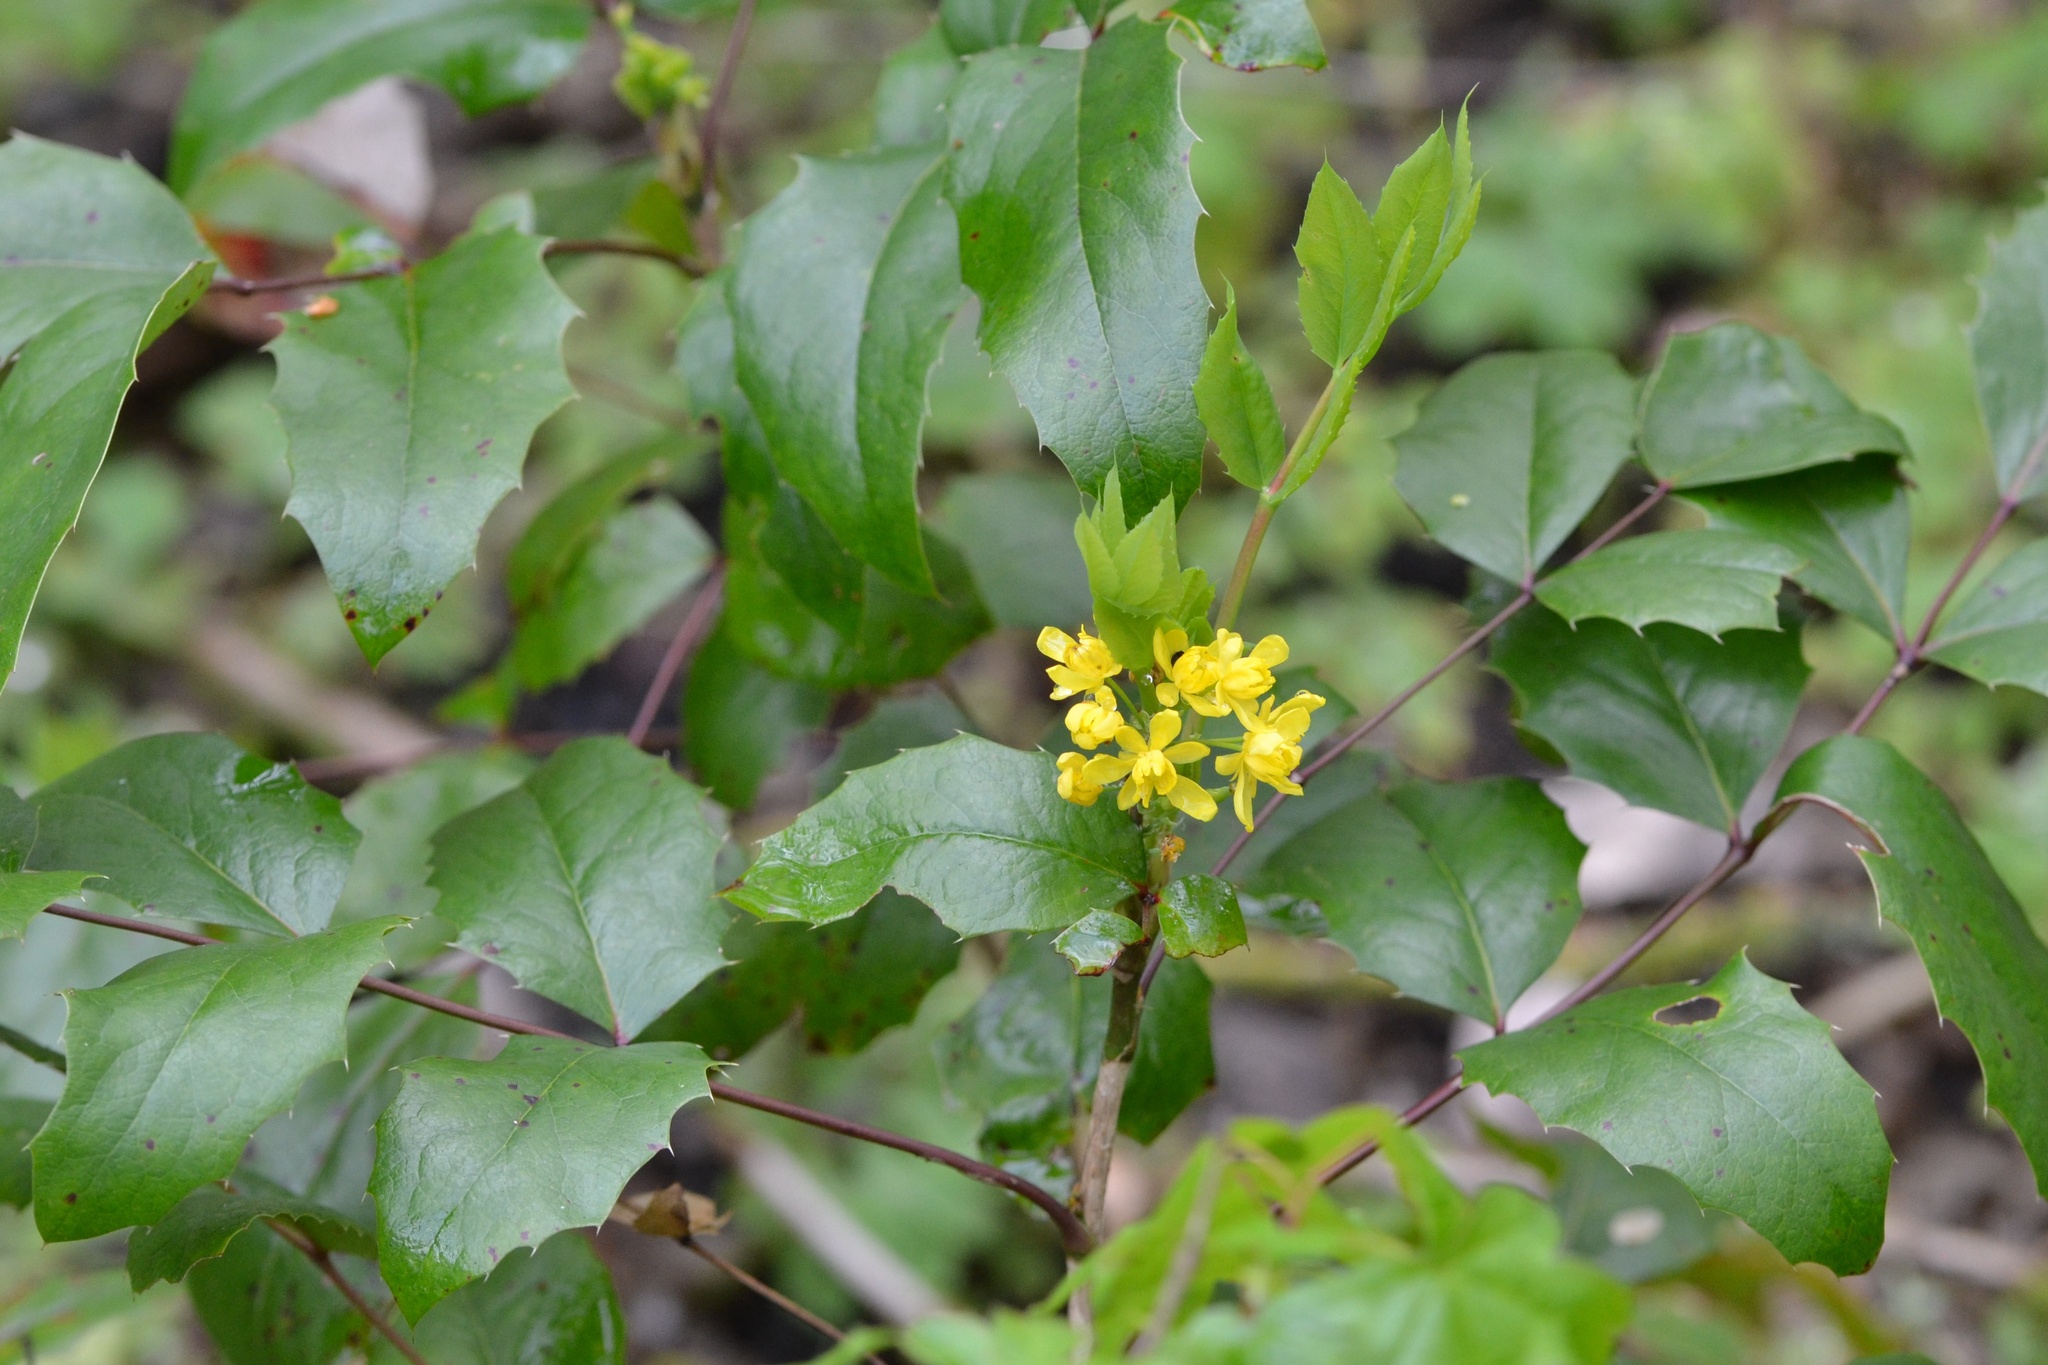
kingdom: Plantae
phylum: Tracheophyta
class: Magnoliopsida
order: Ranunculales
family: Berberidaceae
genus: Mahonia
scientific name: Mahonia aquifolium
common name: Oregon-grape
